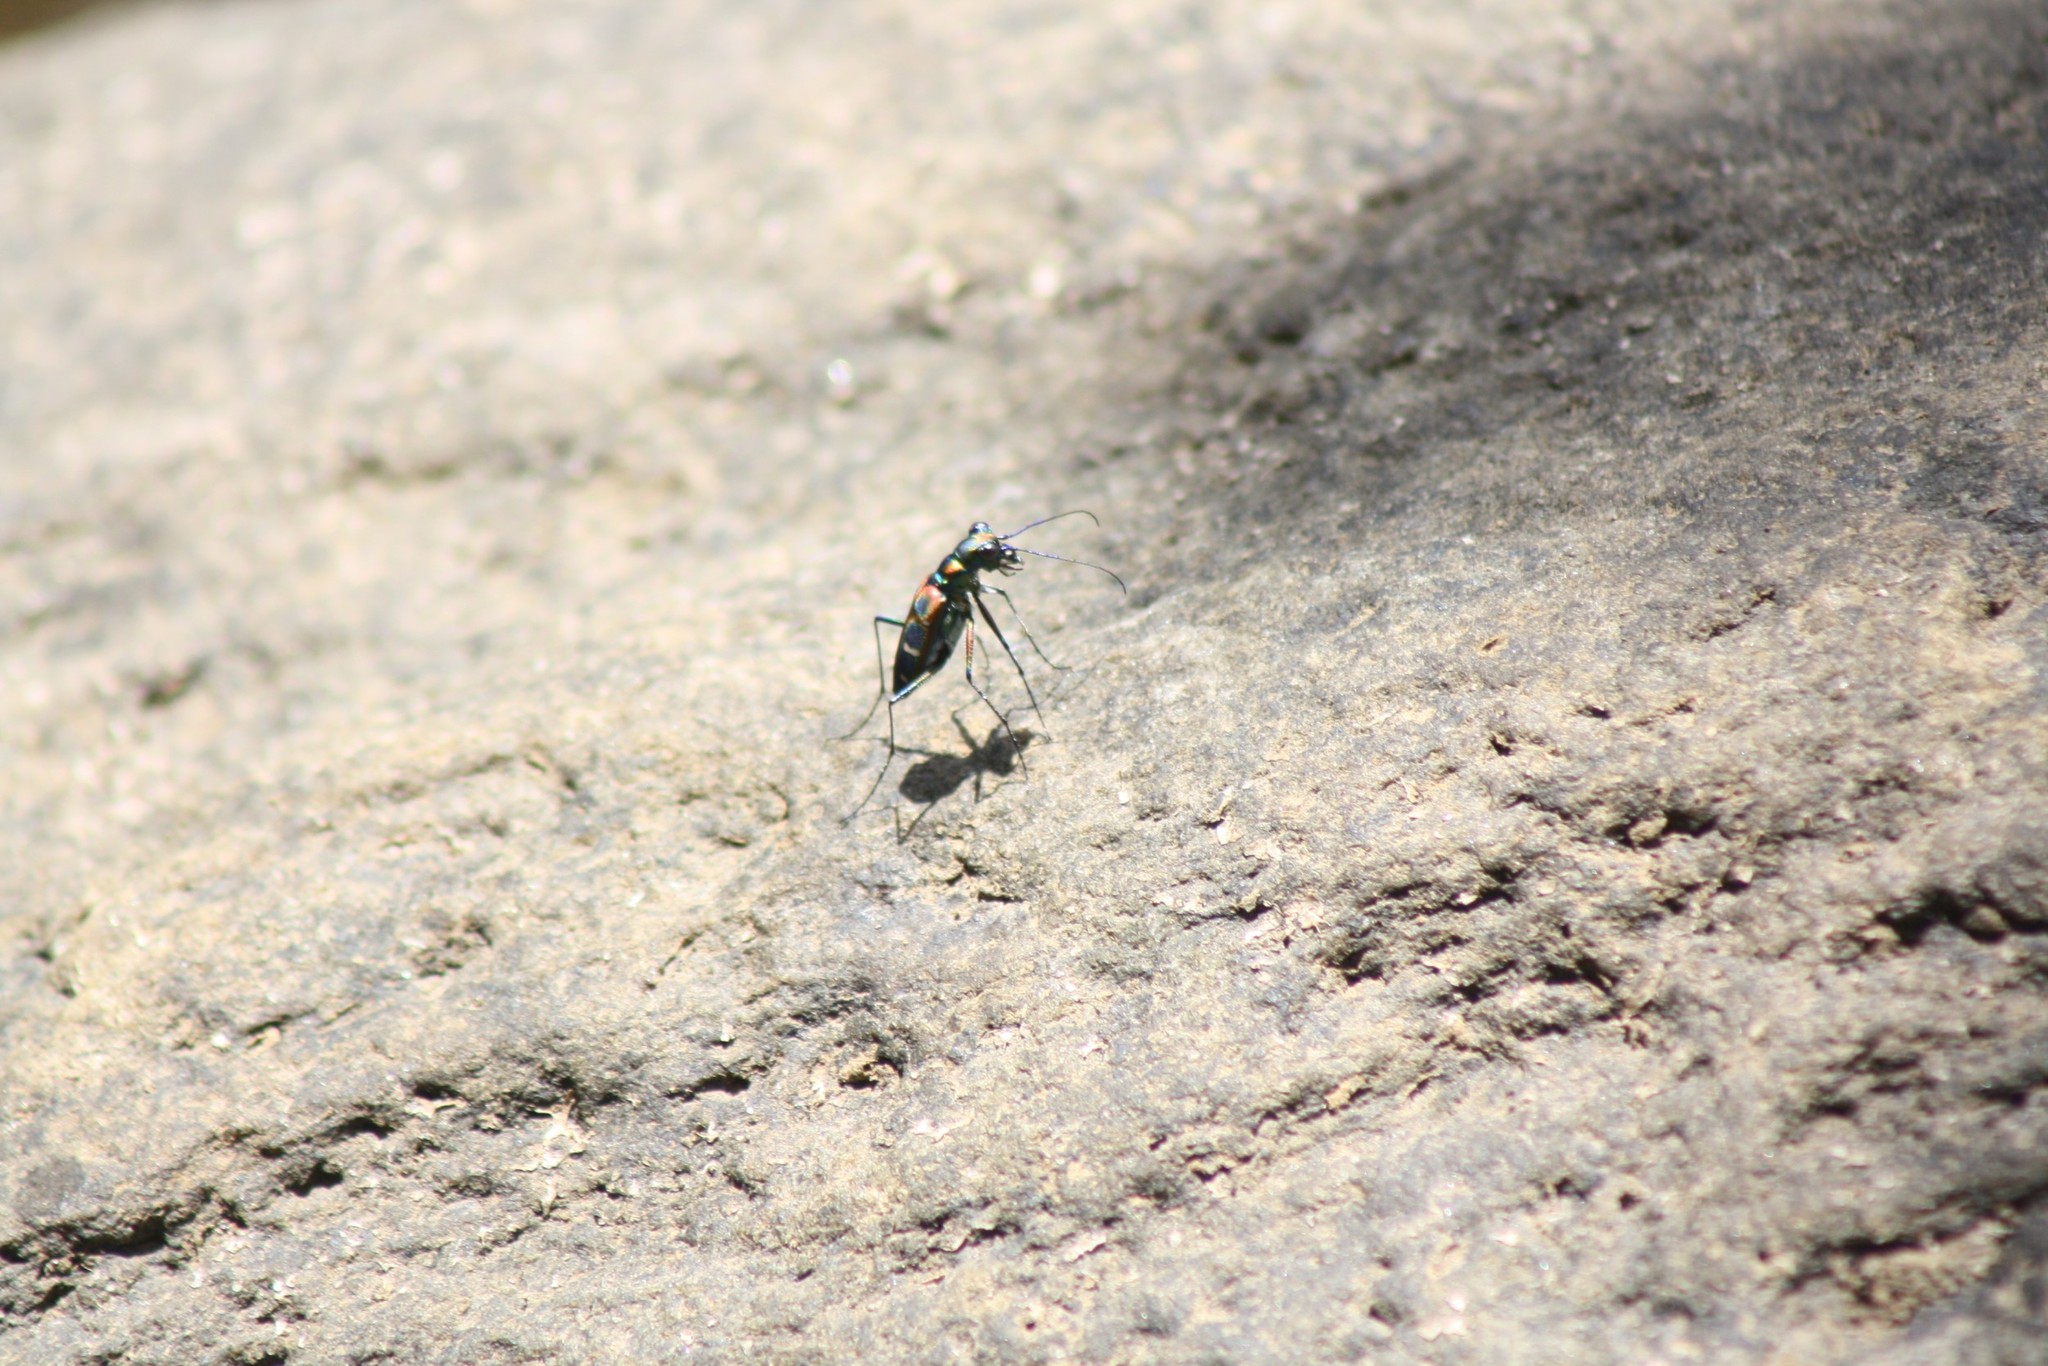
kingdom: Animalia
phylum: Arthropoda
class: Insecta
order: Coleoptera
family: Carabidae
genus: Cicindela
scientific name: Cicindela barmanica
